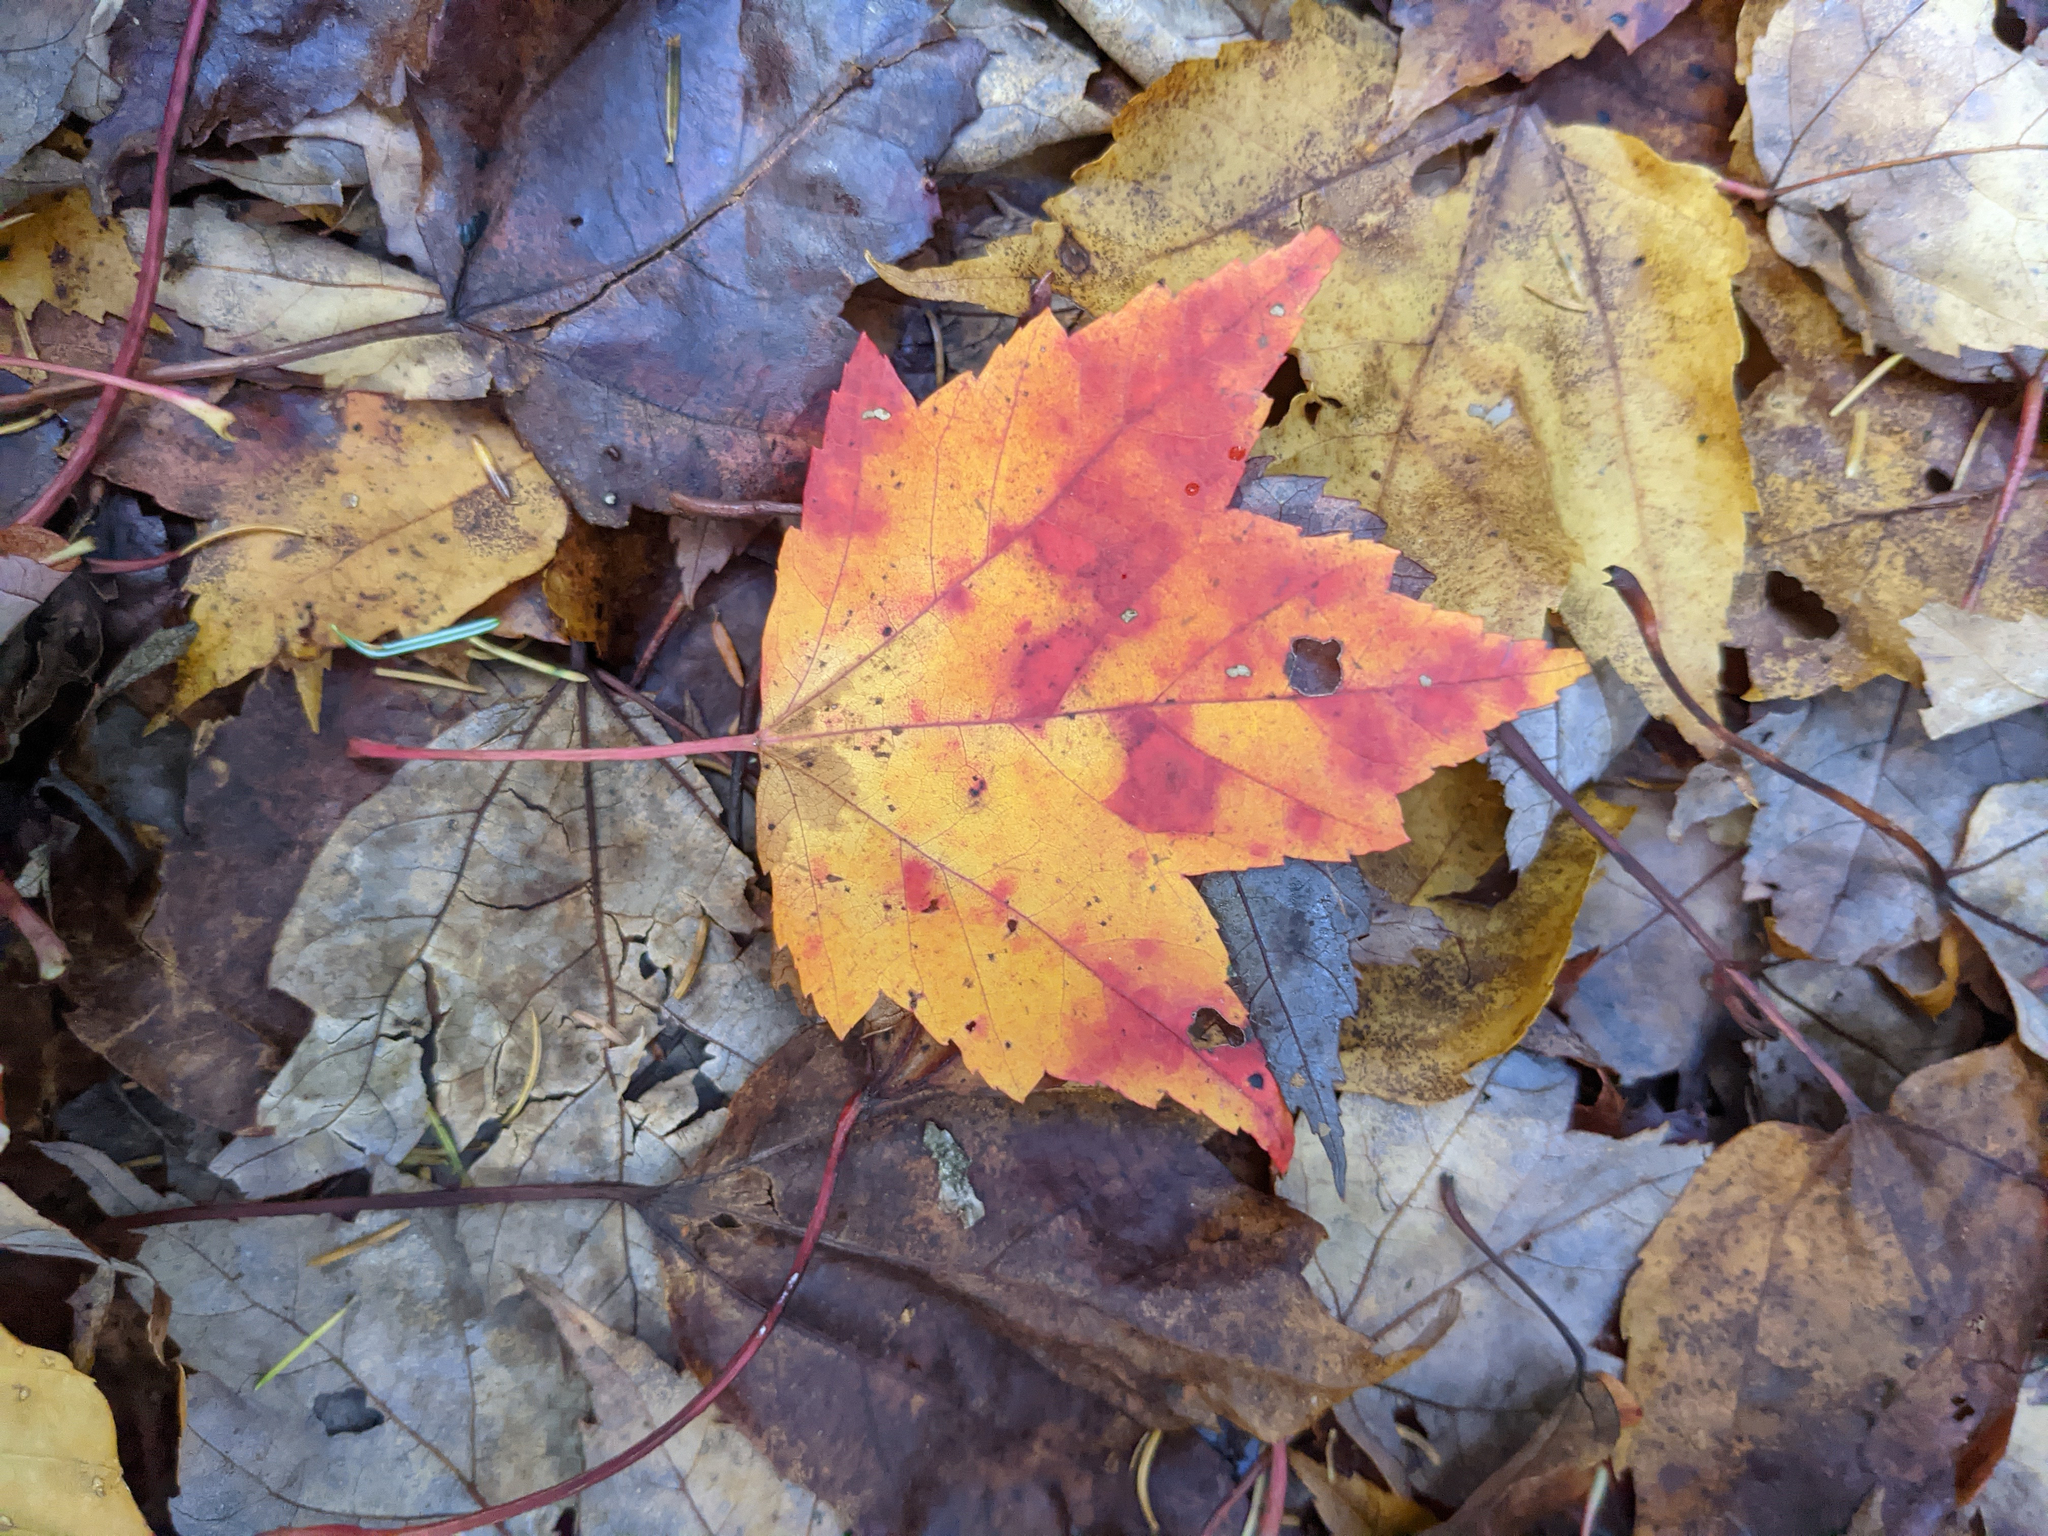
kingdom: Plantae
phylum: Tracheophyta
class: Magnoliopsida
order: Sapindales
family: Sapindaceae
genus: Acer
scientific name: Acer rubrum
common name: Red maple
